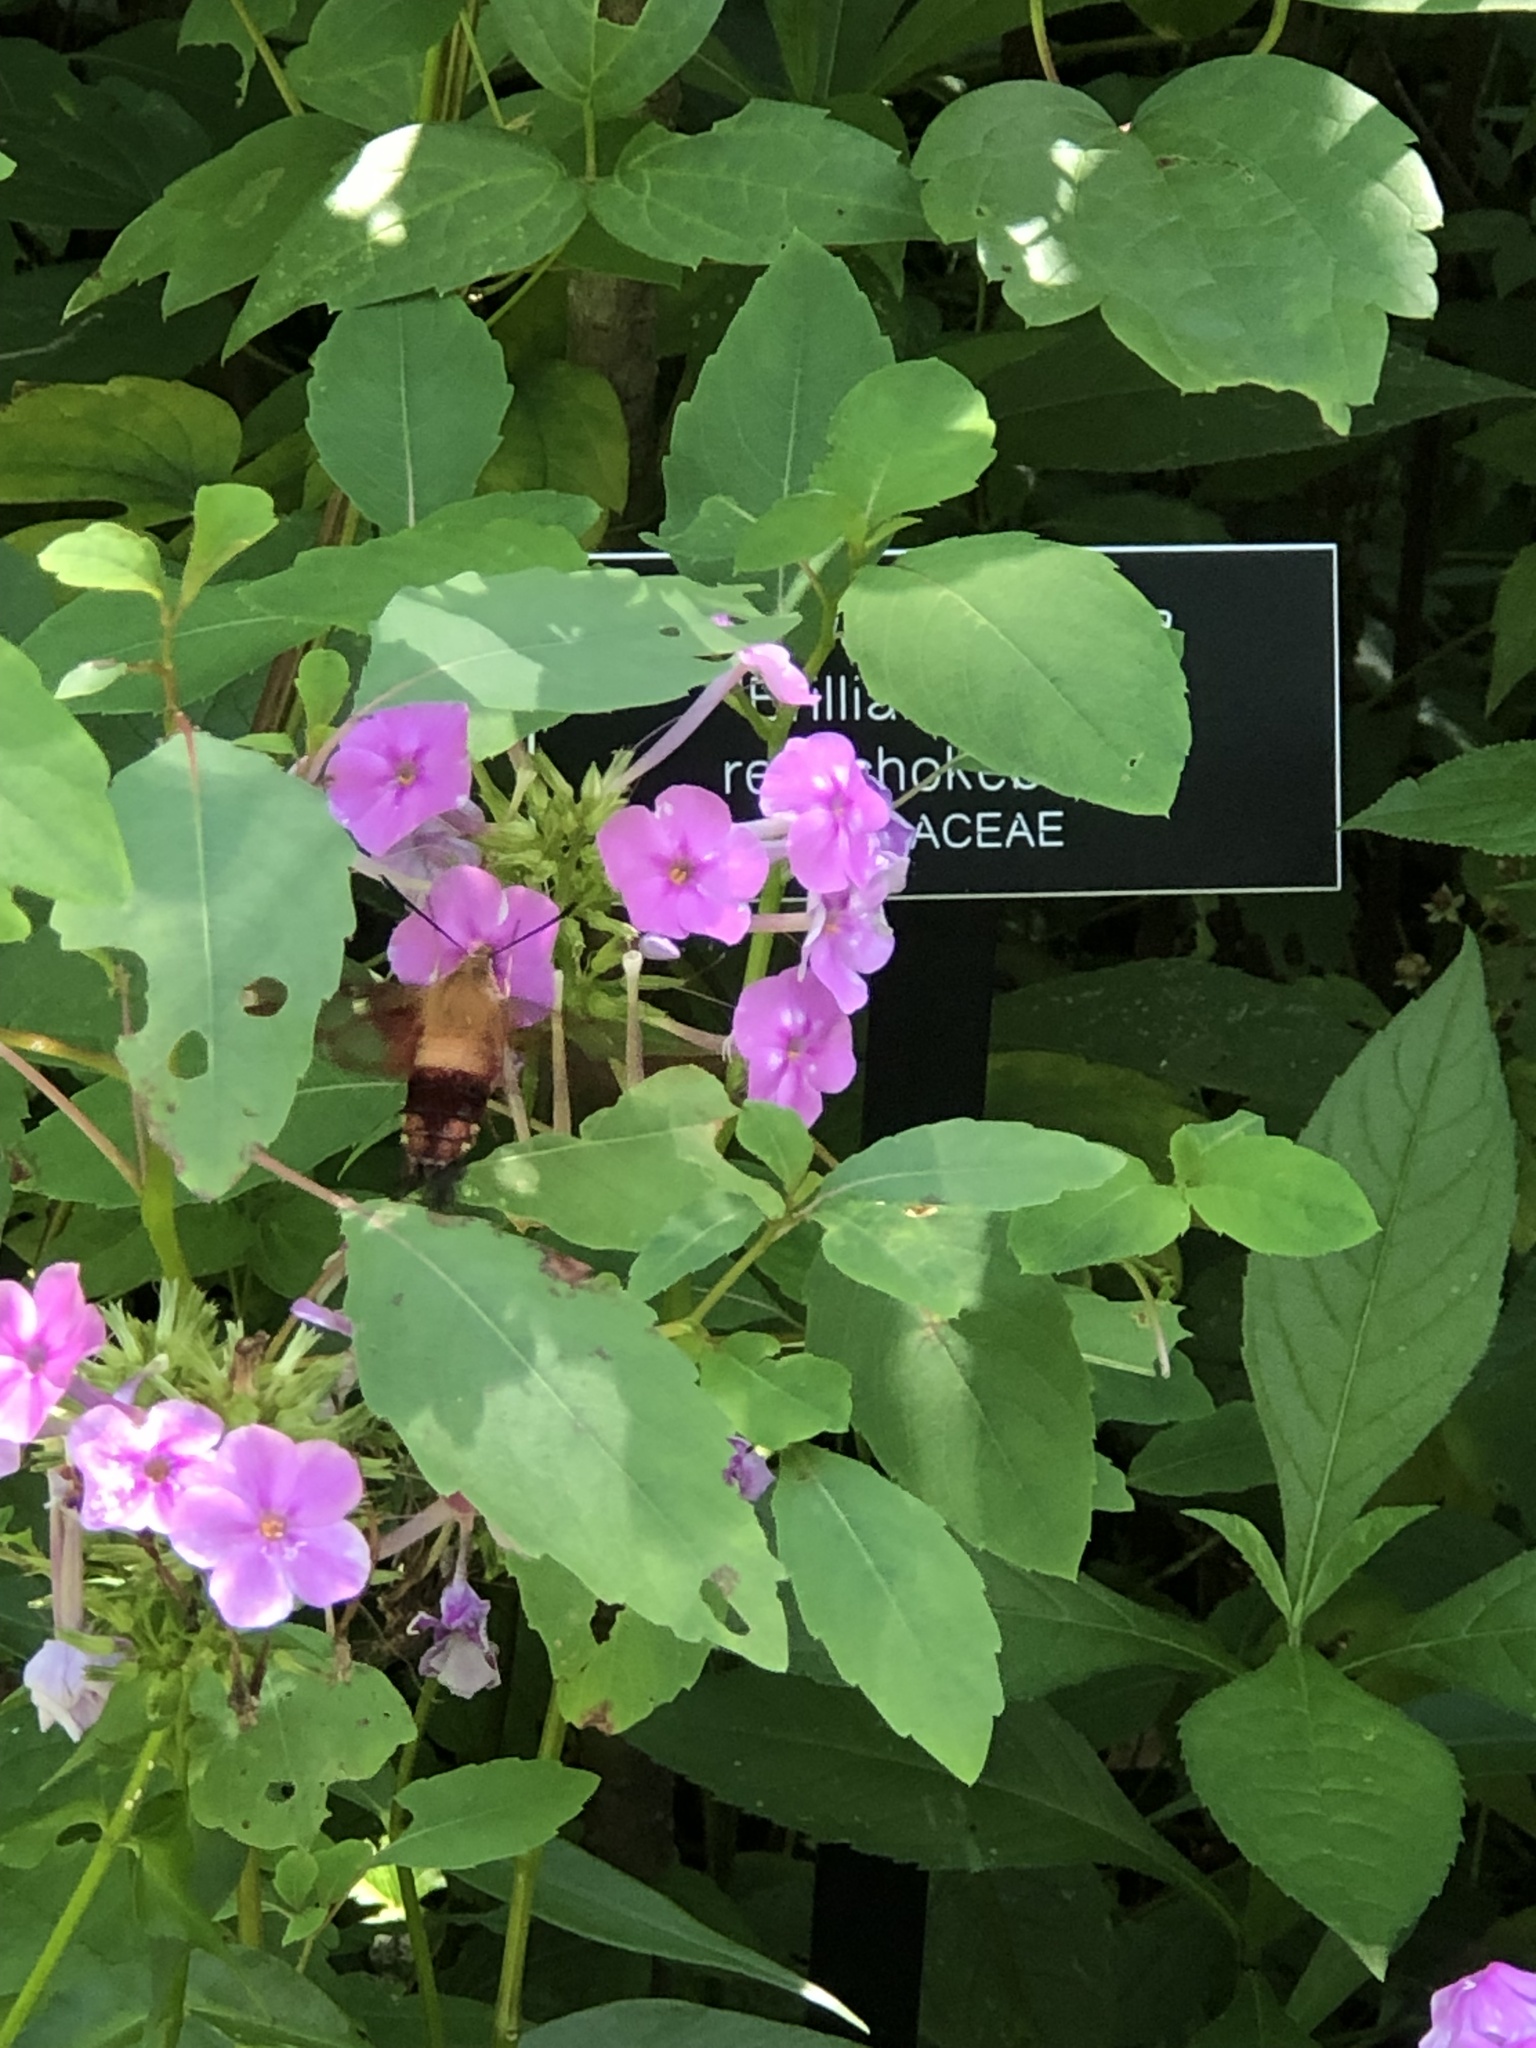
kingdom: Animalia
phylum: Arthropoda
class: Insecta
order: Lepidoptera
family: Sphingidae
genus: Hemaris
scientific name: Hemaris thysbe
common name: Common clear-wing
